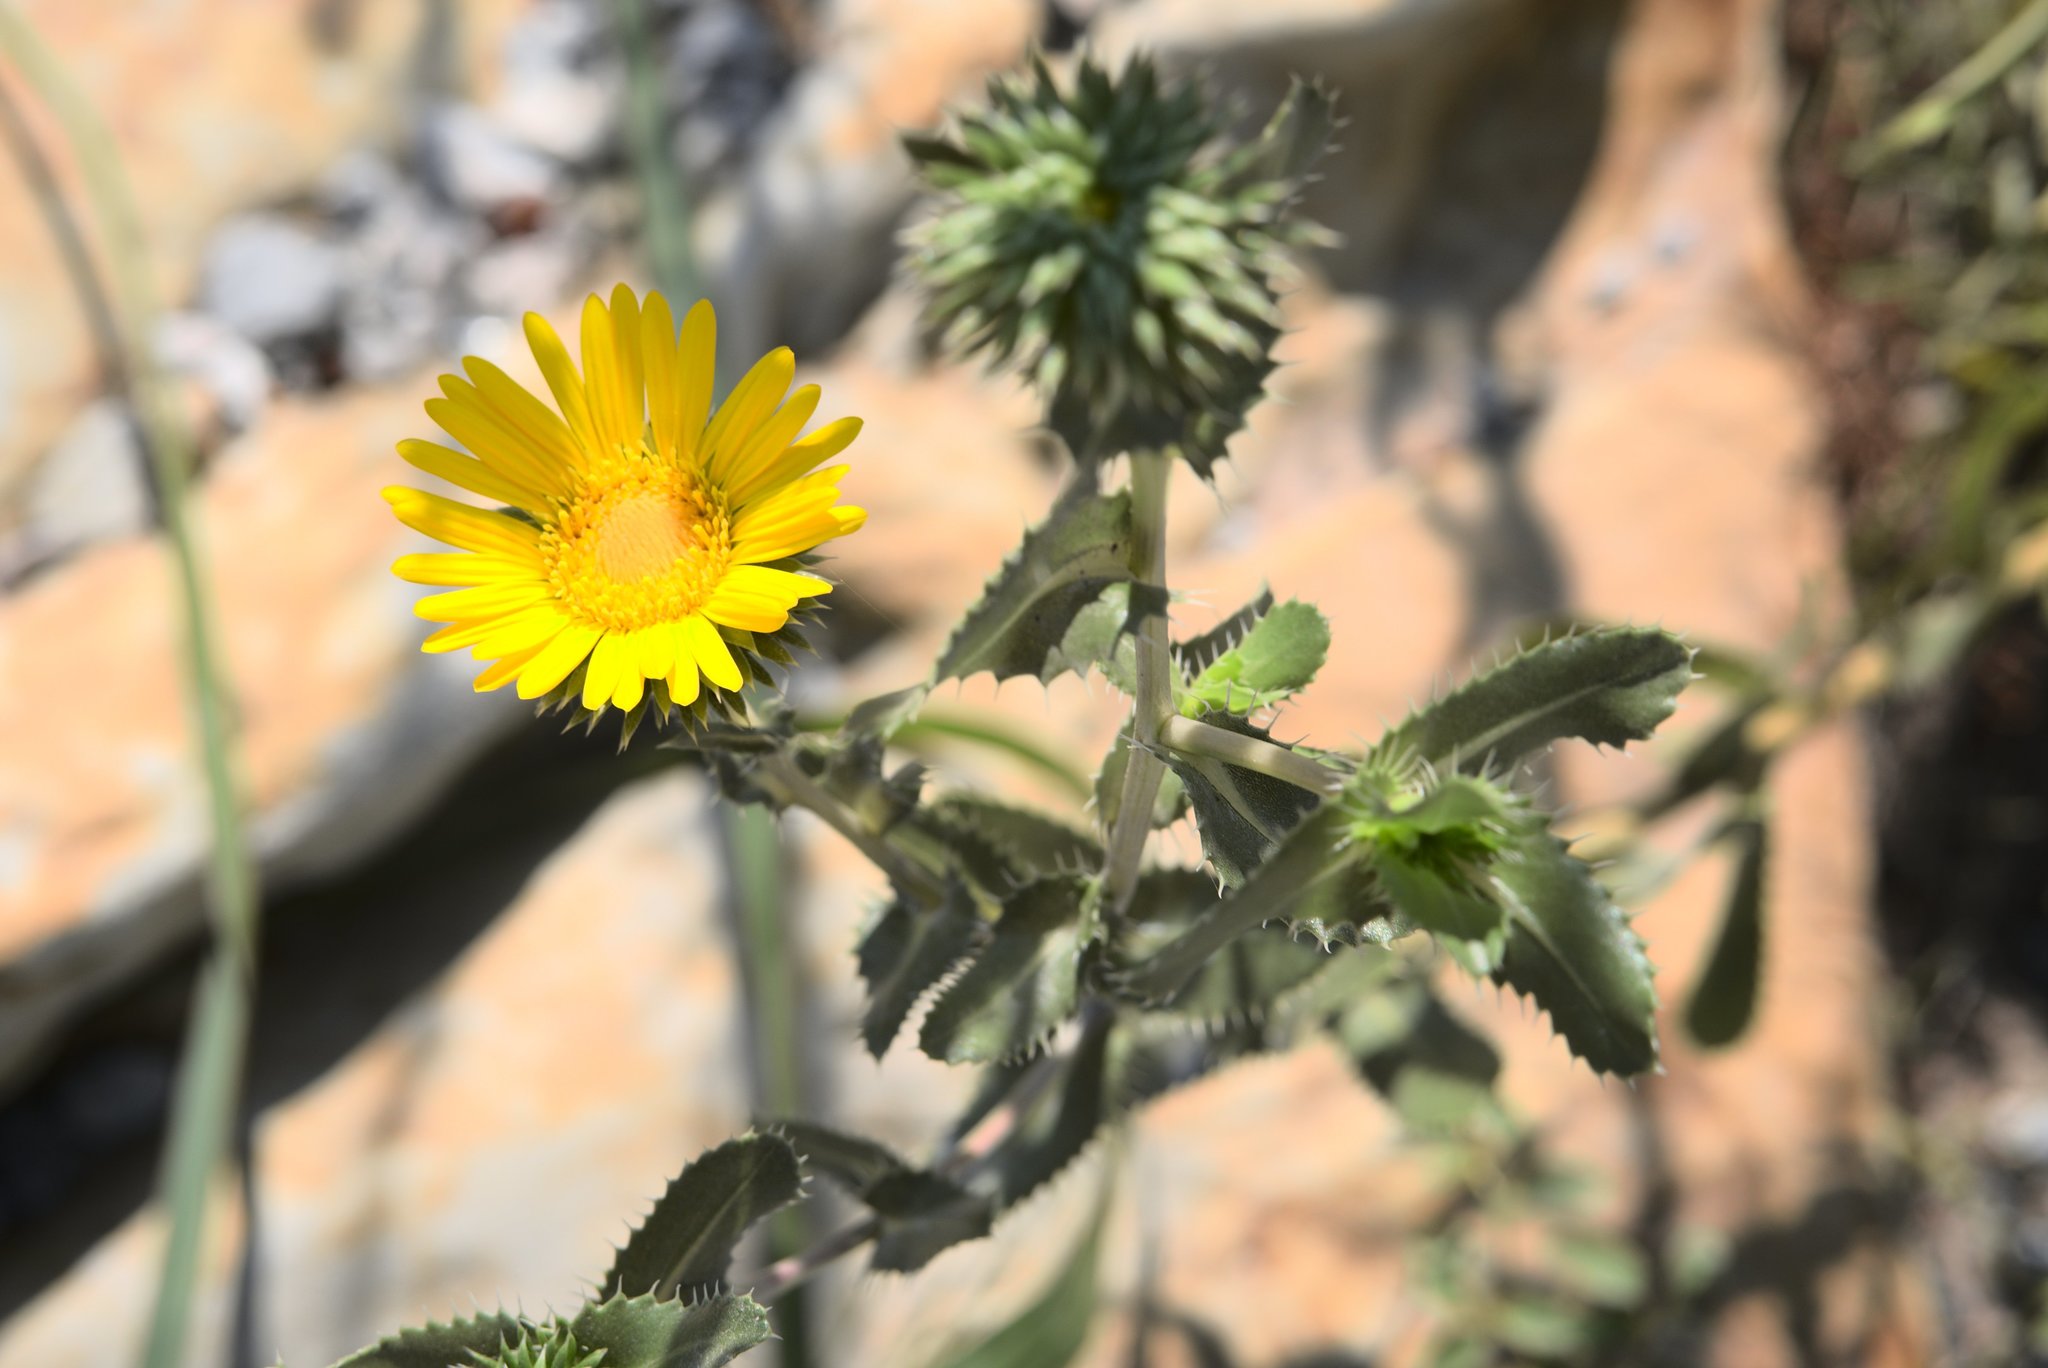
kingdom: Plantae
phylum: Tracheophyta
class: Magnoliopsida
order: Asterales
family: Asteraceae
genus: Grindelia
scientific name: Grindelia ciliata
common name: Goldenweed
